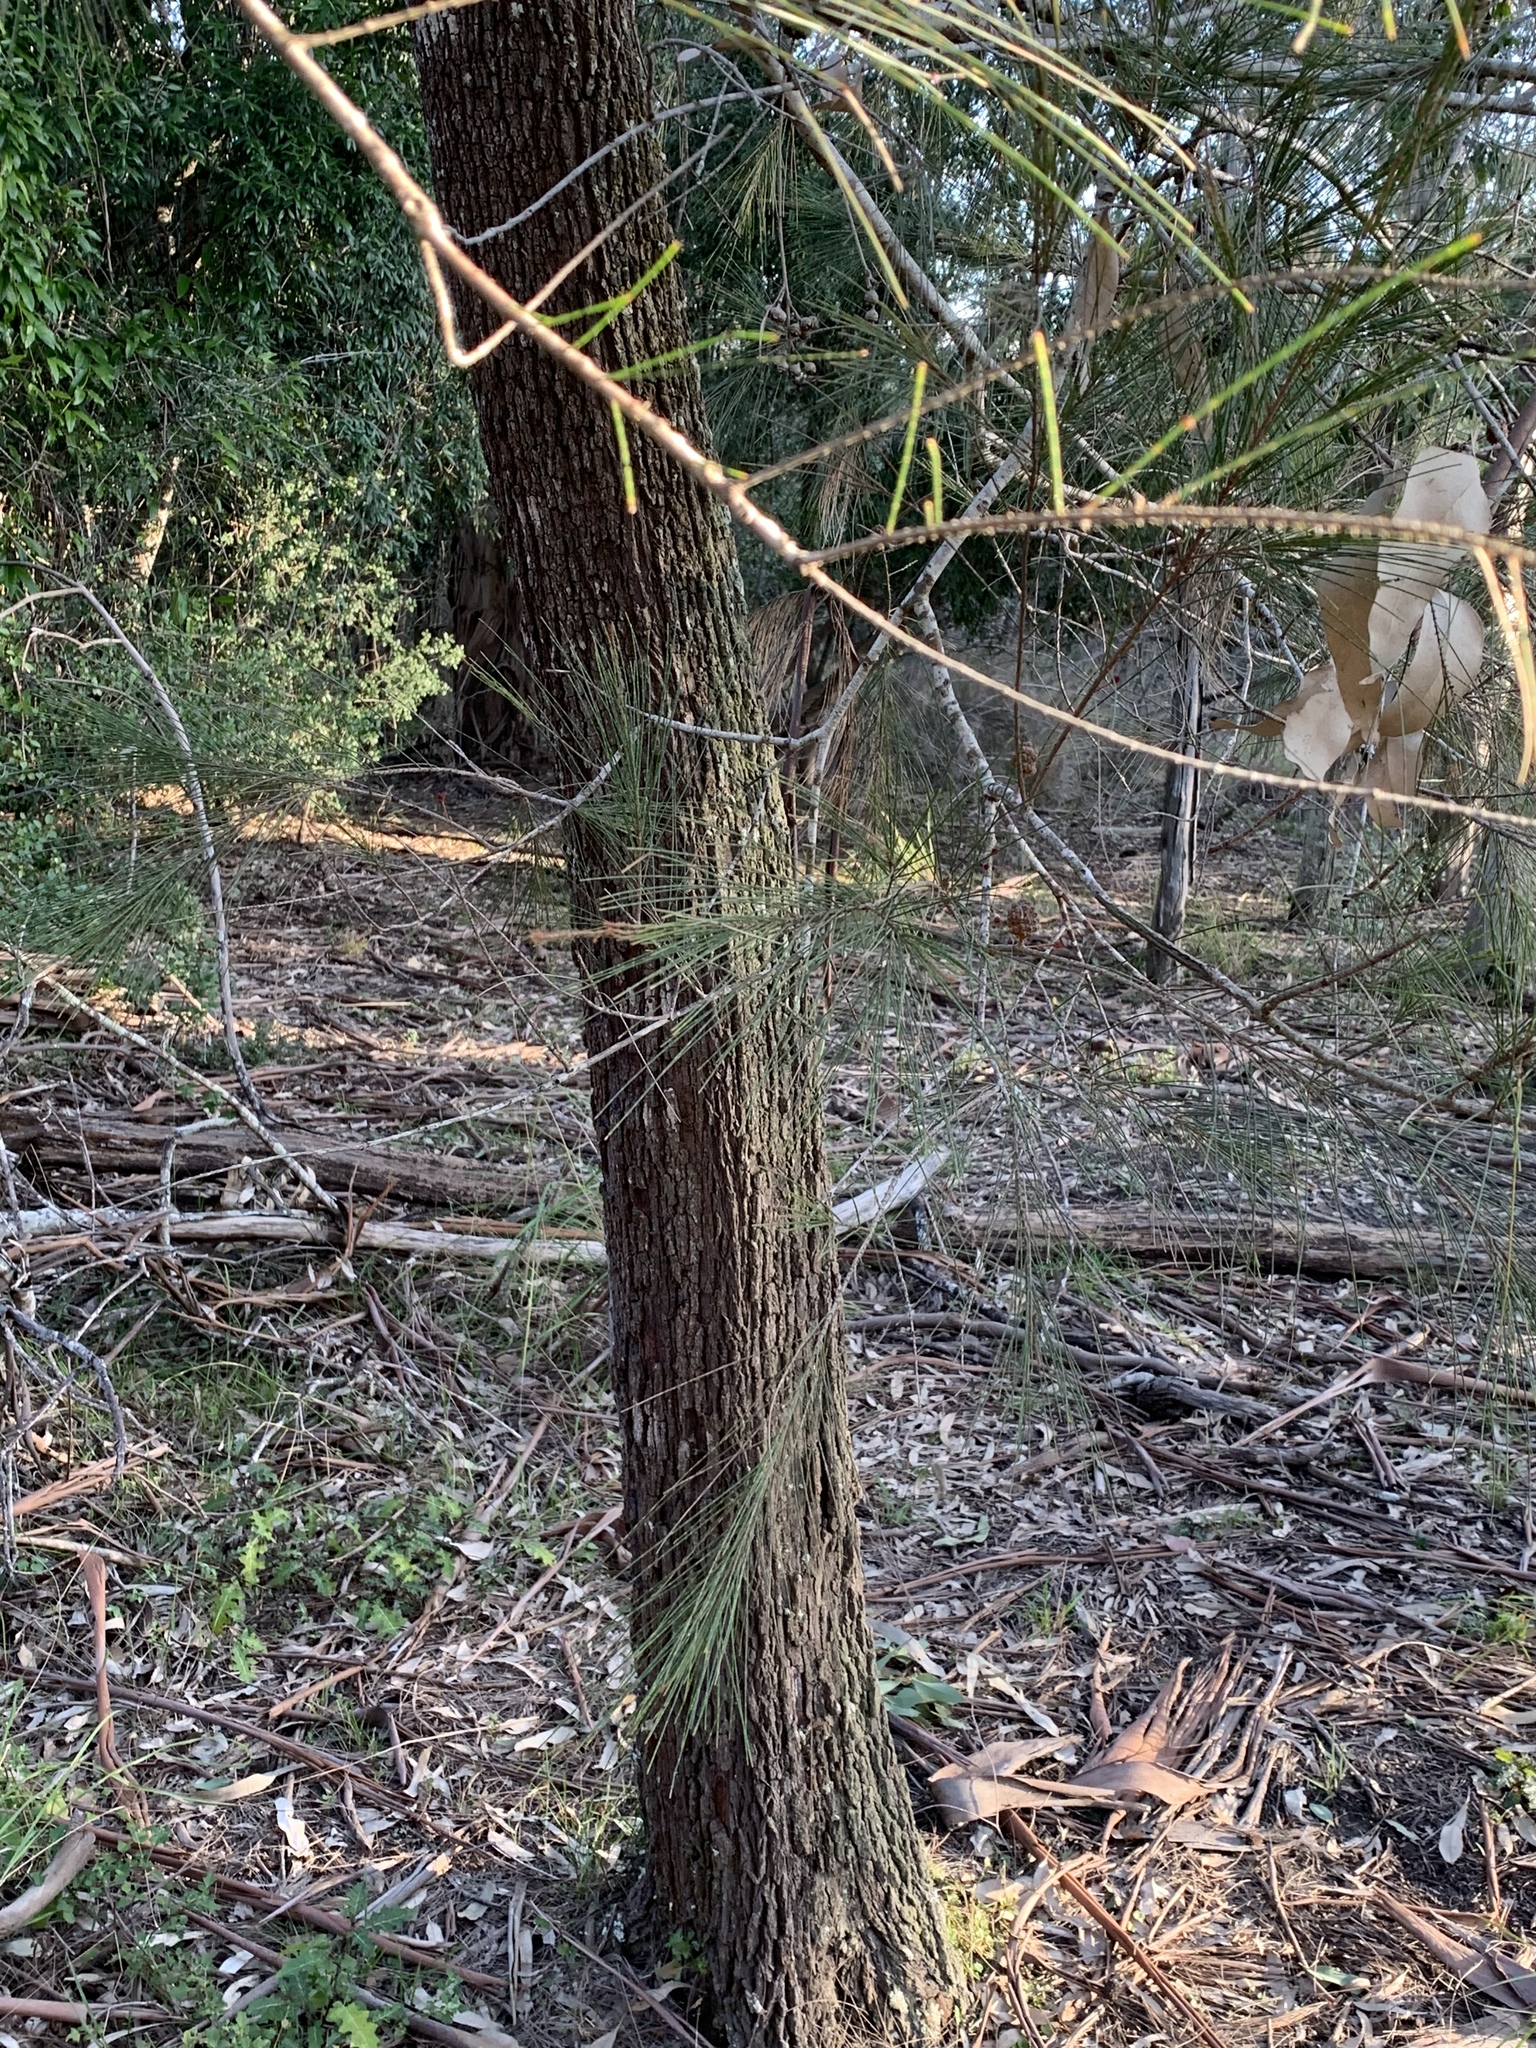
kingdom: Plantae
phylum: Tracheophyta
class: Magnoliopsida
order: Fagales
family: Casuarinaceae
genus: Allocasuarina
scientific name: Allocasuarina littoralis
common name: Black she-oak
